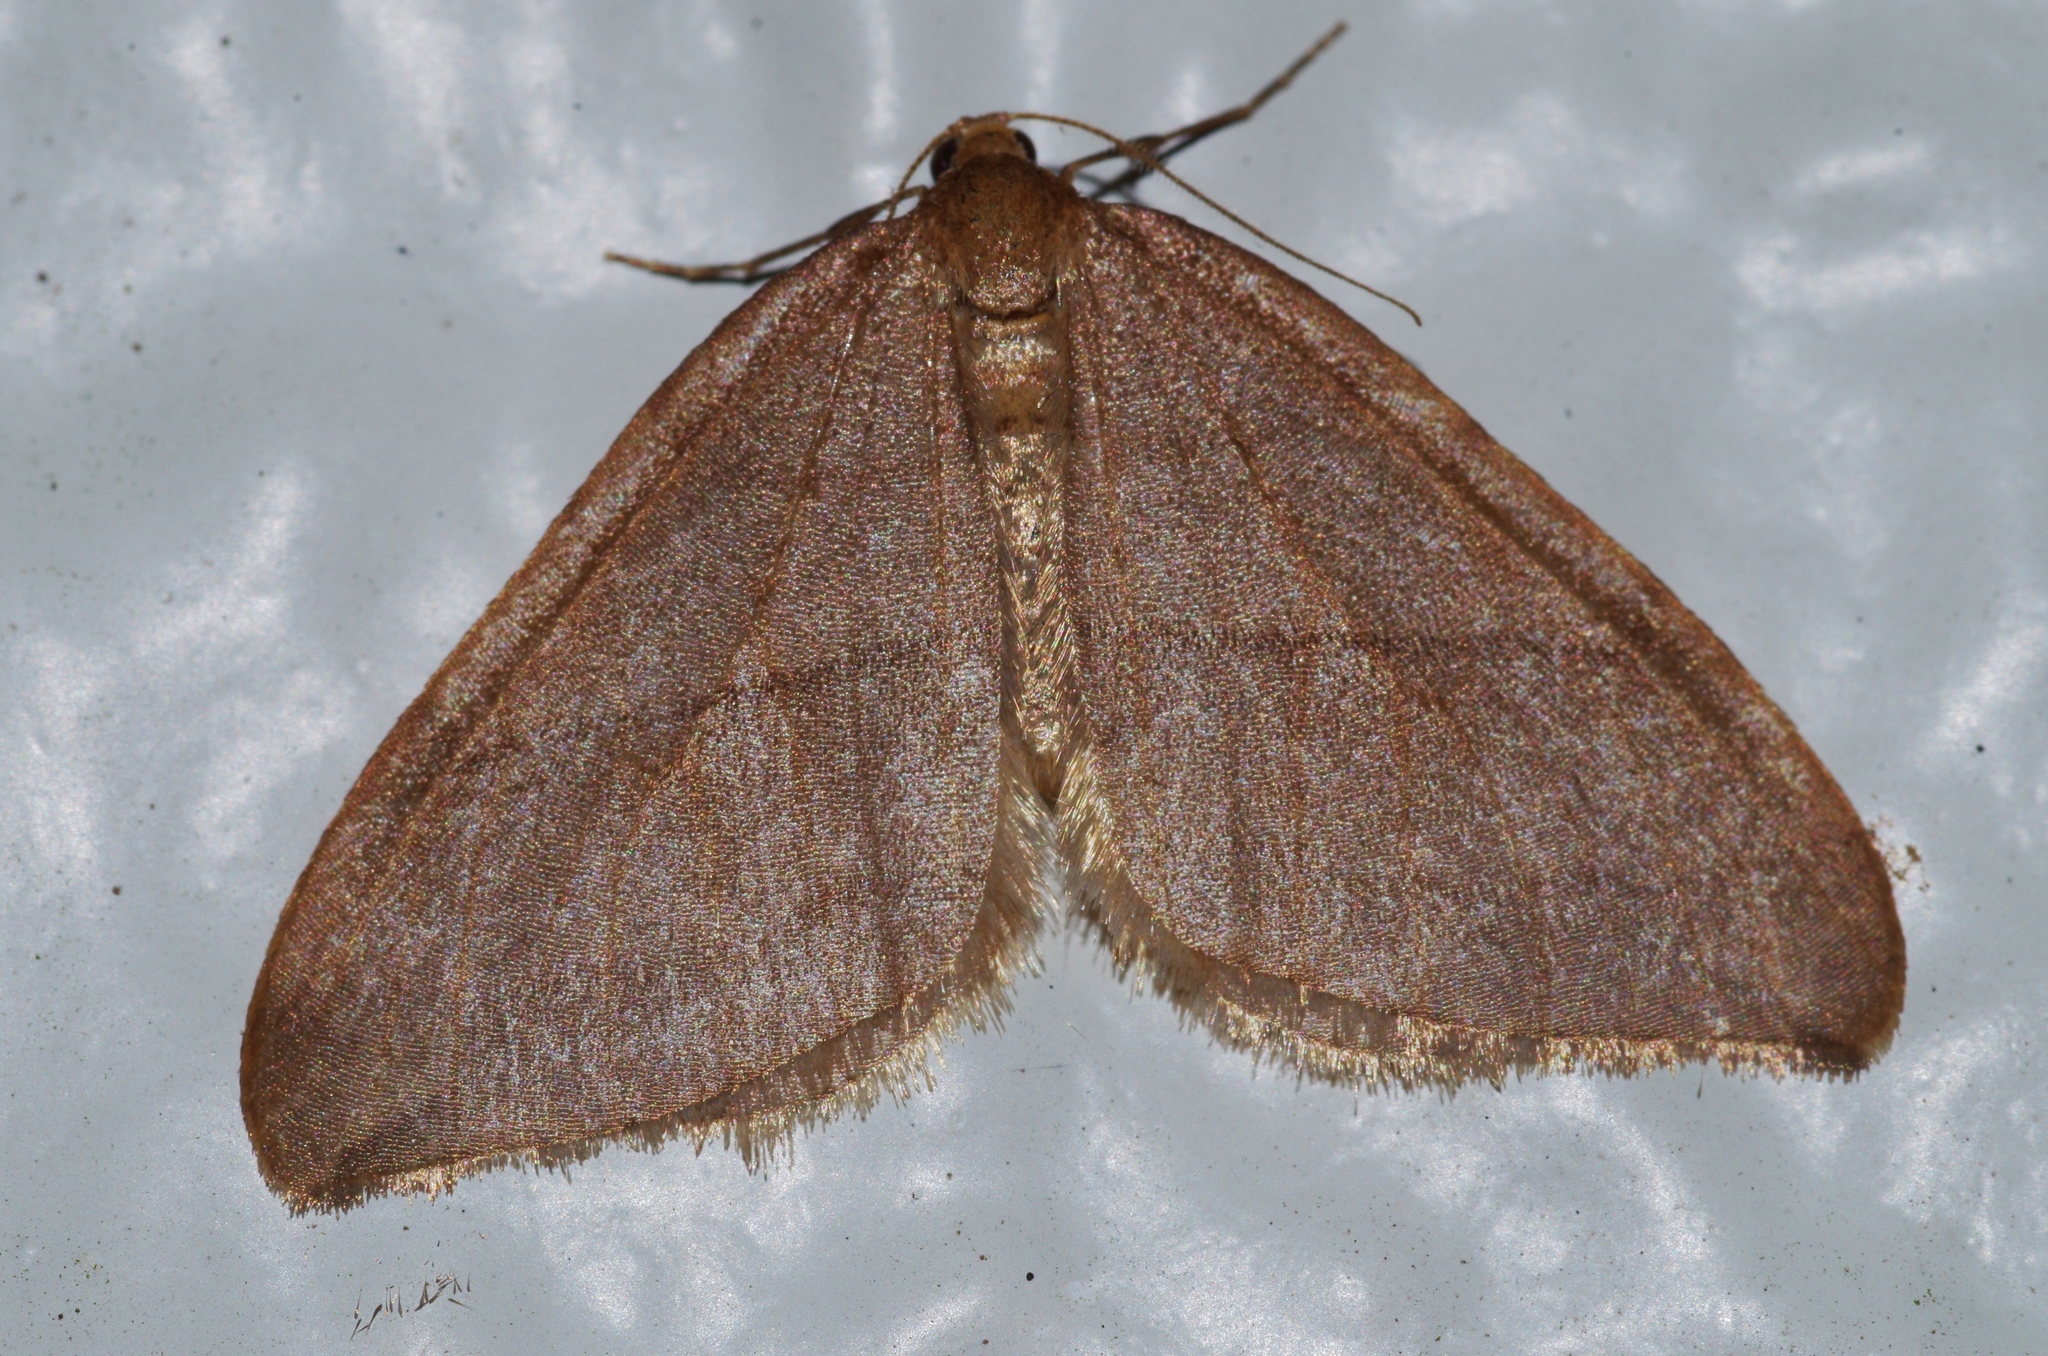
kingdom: Animalia
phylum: Arthropoda
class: Insecta
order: Lepidoptera
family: Geometridae
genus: Nothoporinia
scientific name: Nothoporinia mediolineata
